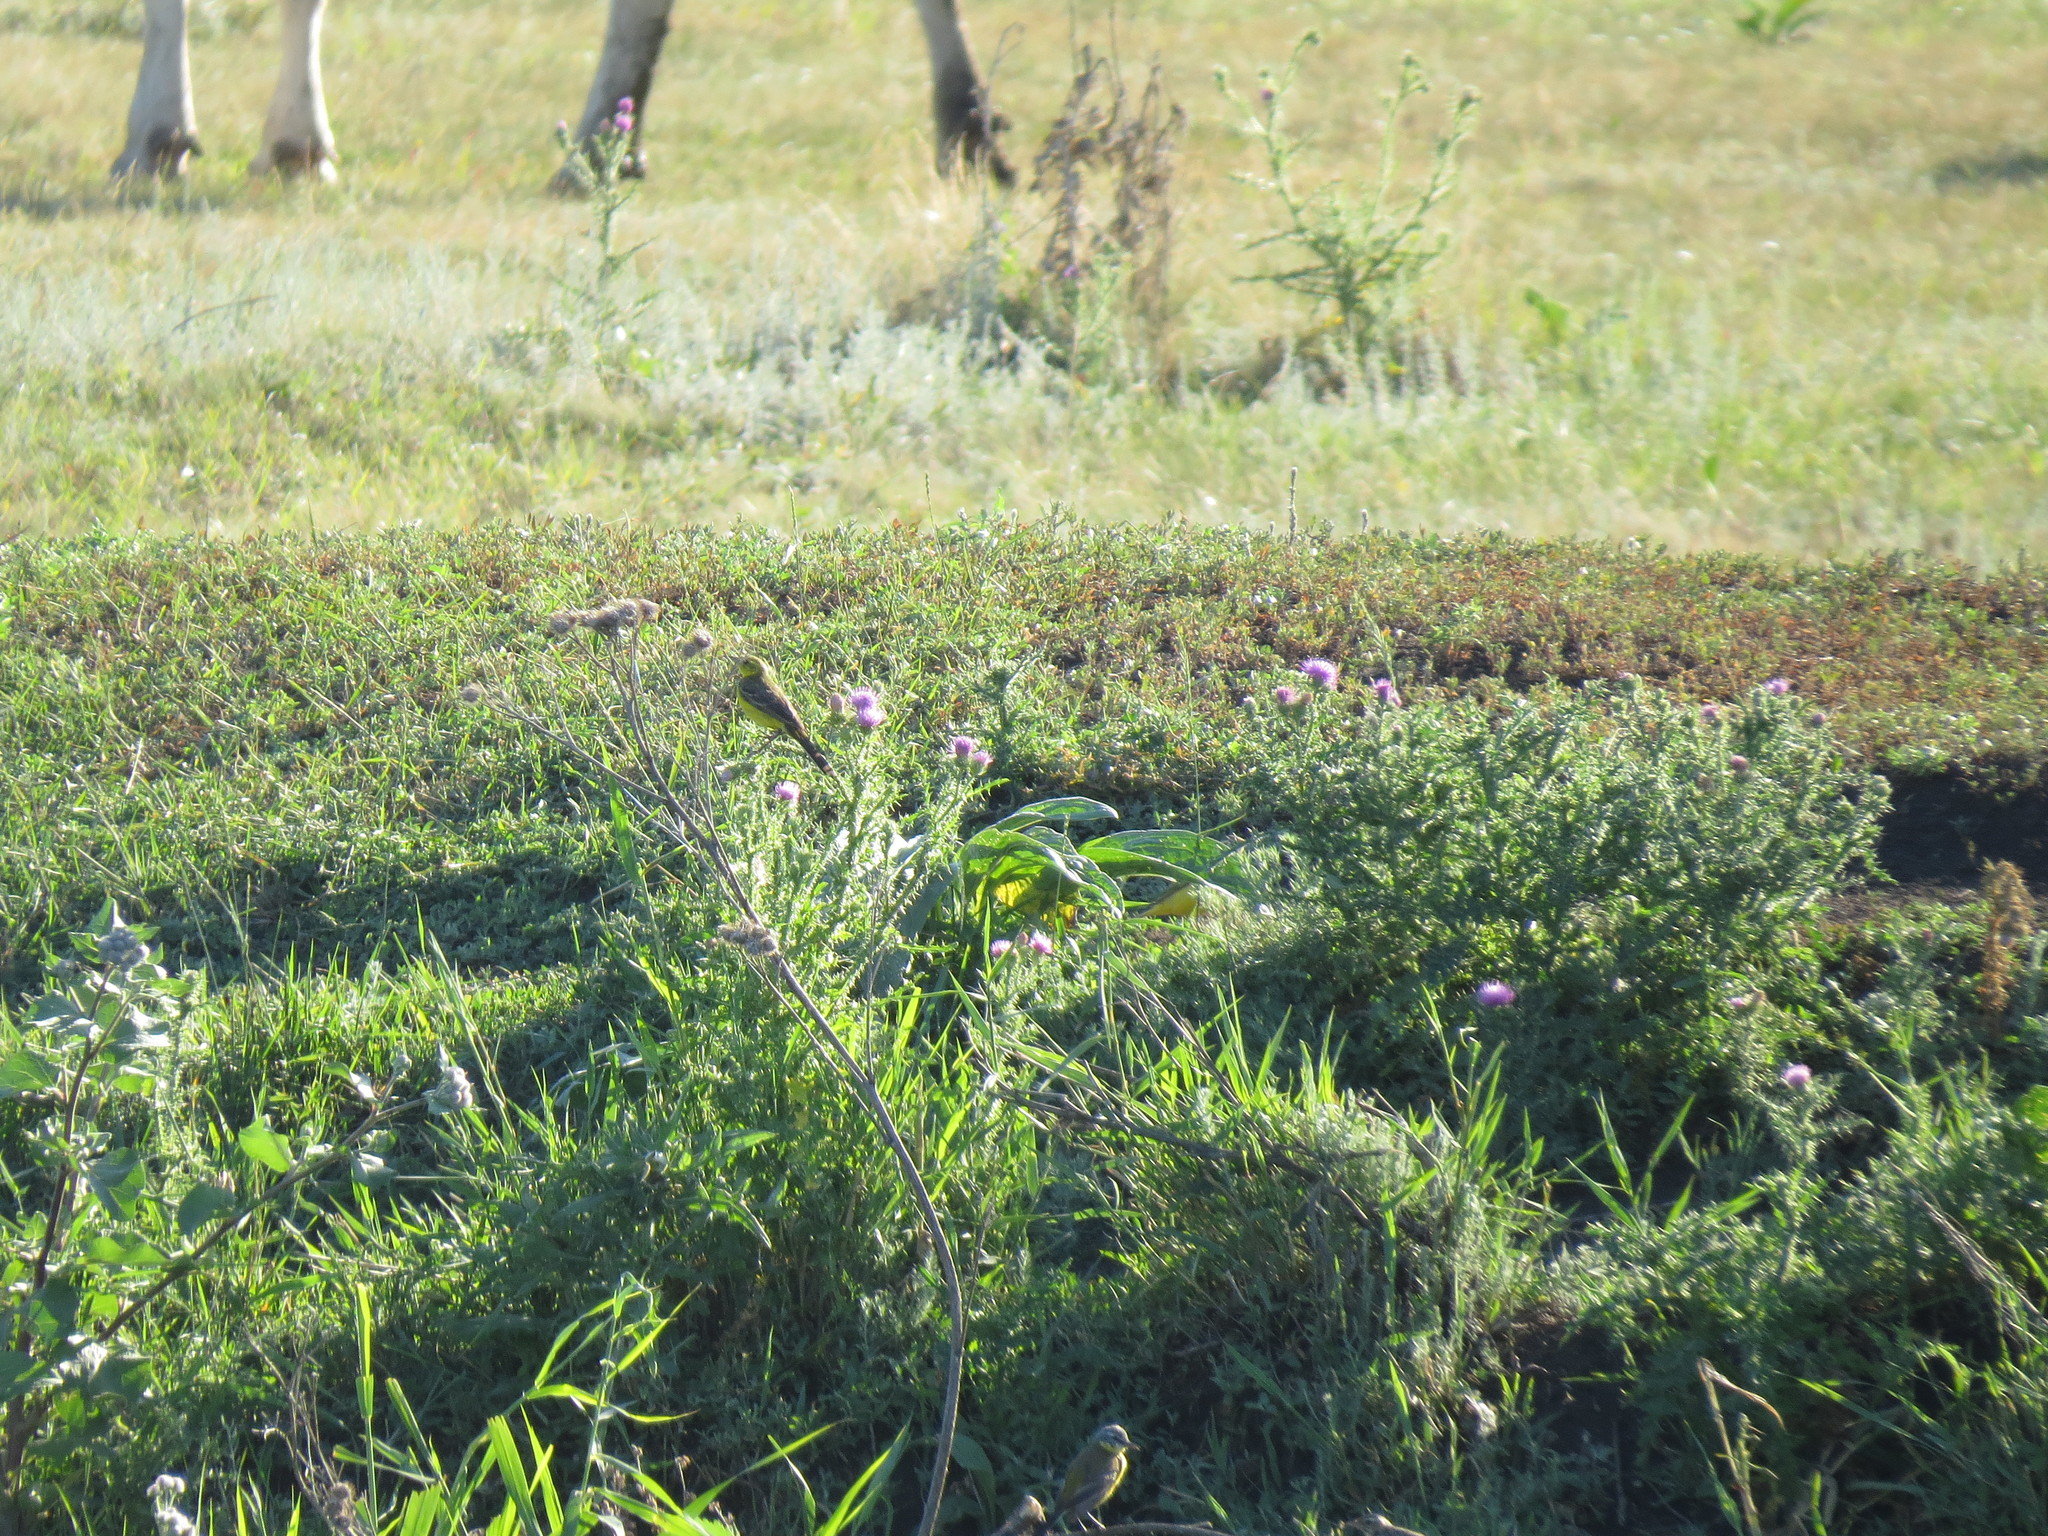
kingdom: Animalia
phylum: Chordata
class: Aves
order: Passeriformes
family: Motacillidae
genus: Motacilla
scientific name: Motacilla flava
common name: Western yellow wagtail
